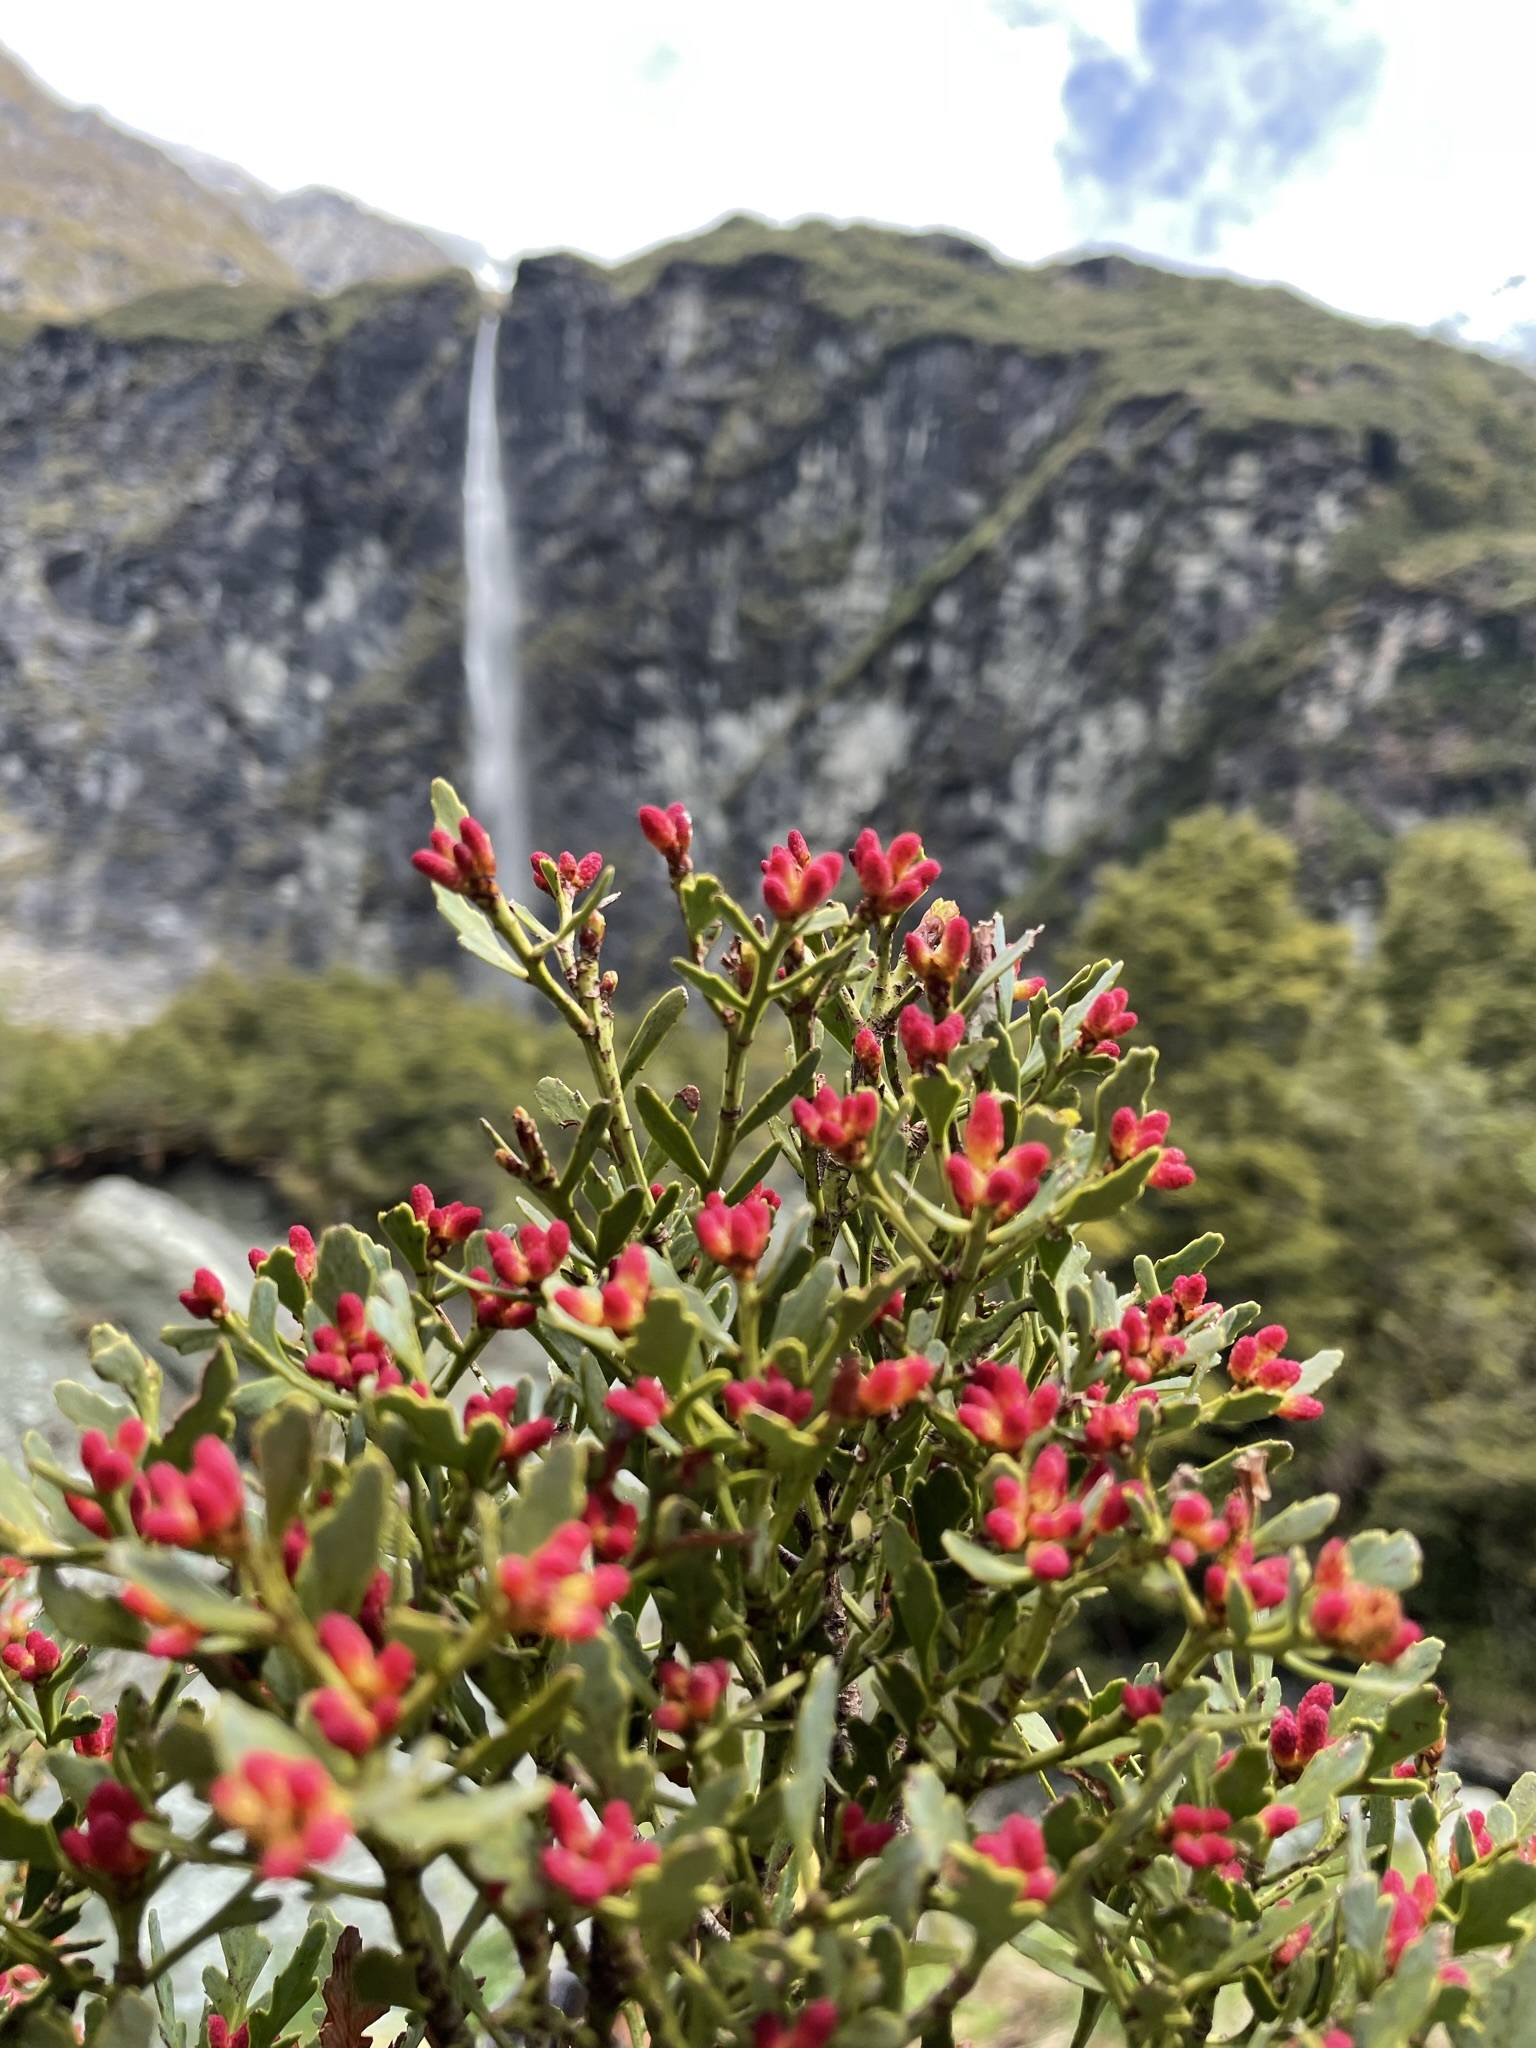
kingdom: Plantae
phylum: Tracheophyta
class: Pinopsida
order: Pinales
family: Phyllocladaceae
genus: Phyllocladus
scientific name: Phyllocladus trichomanoides
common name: Celery pine
